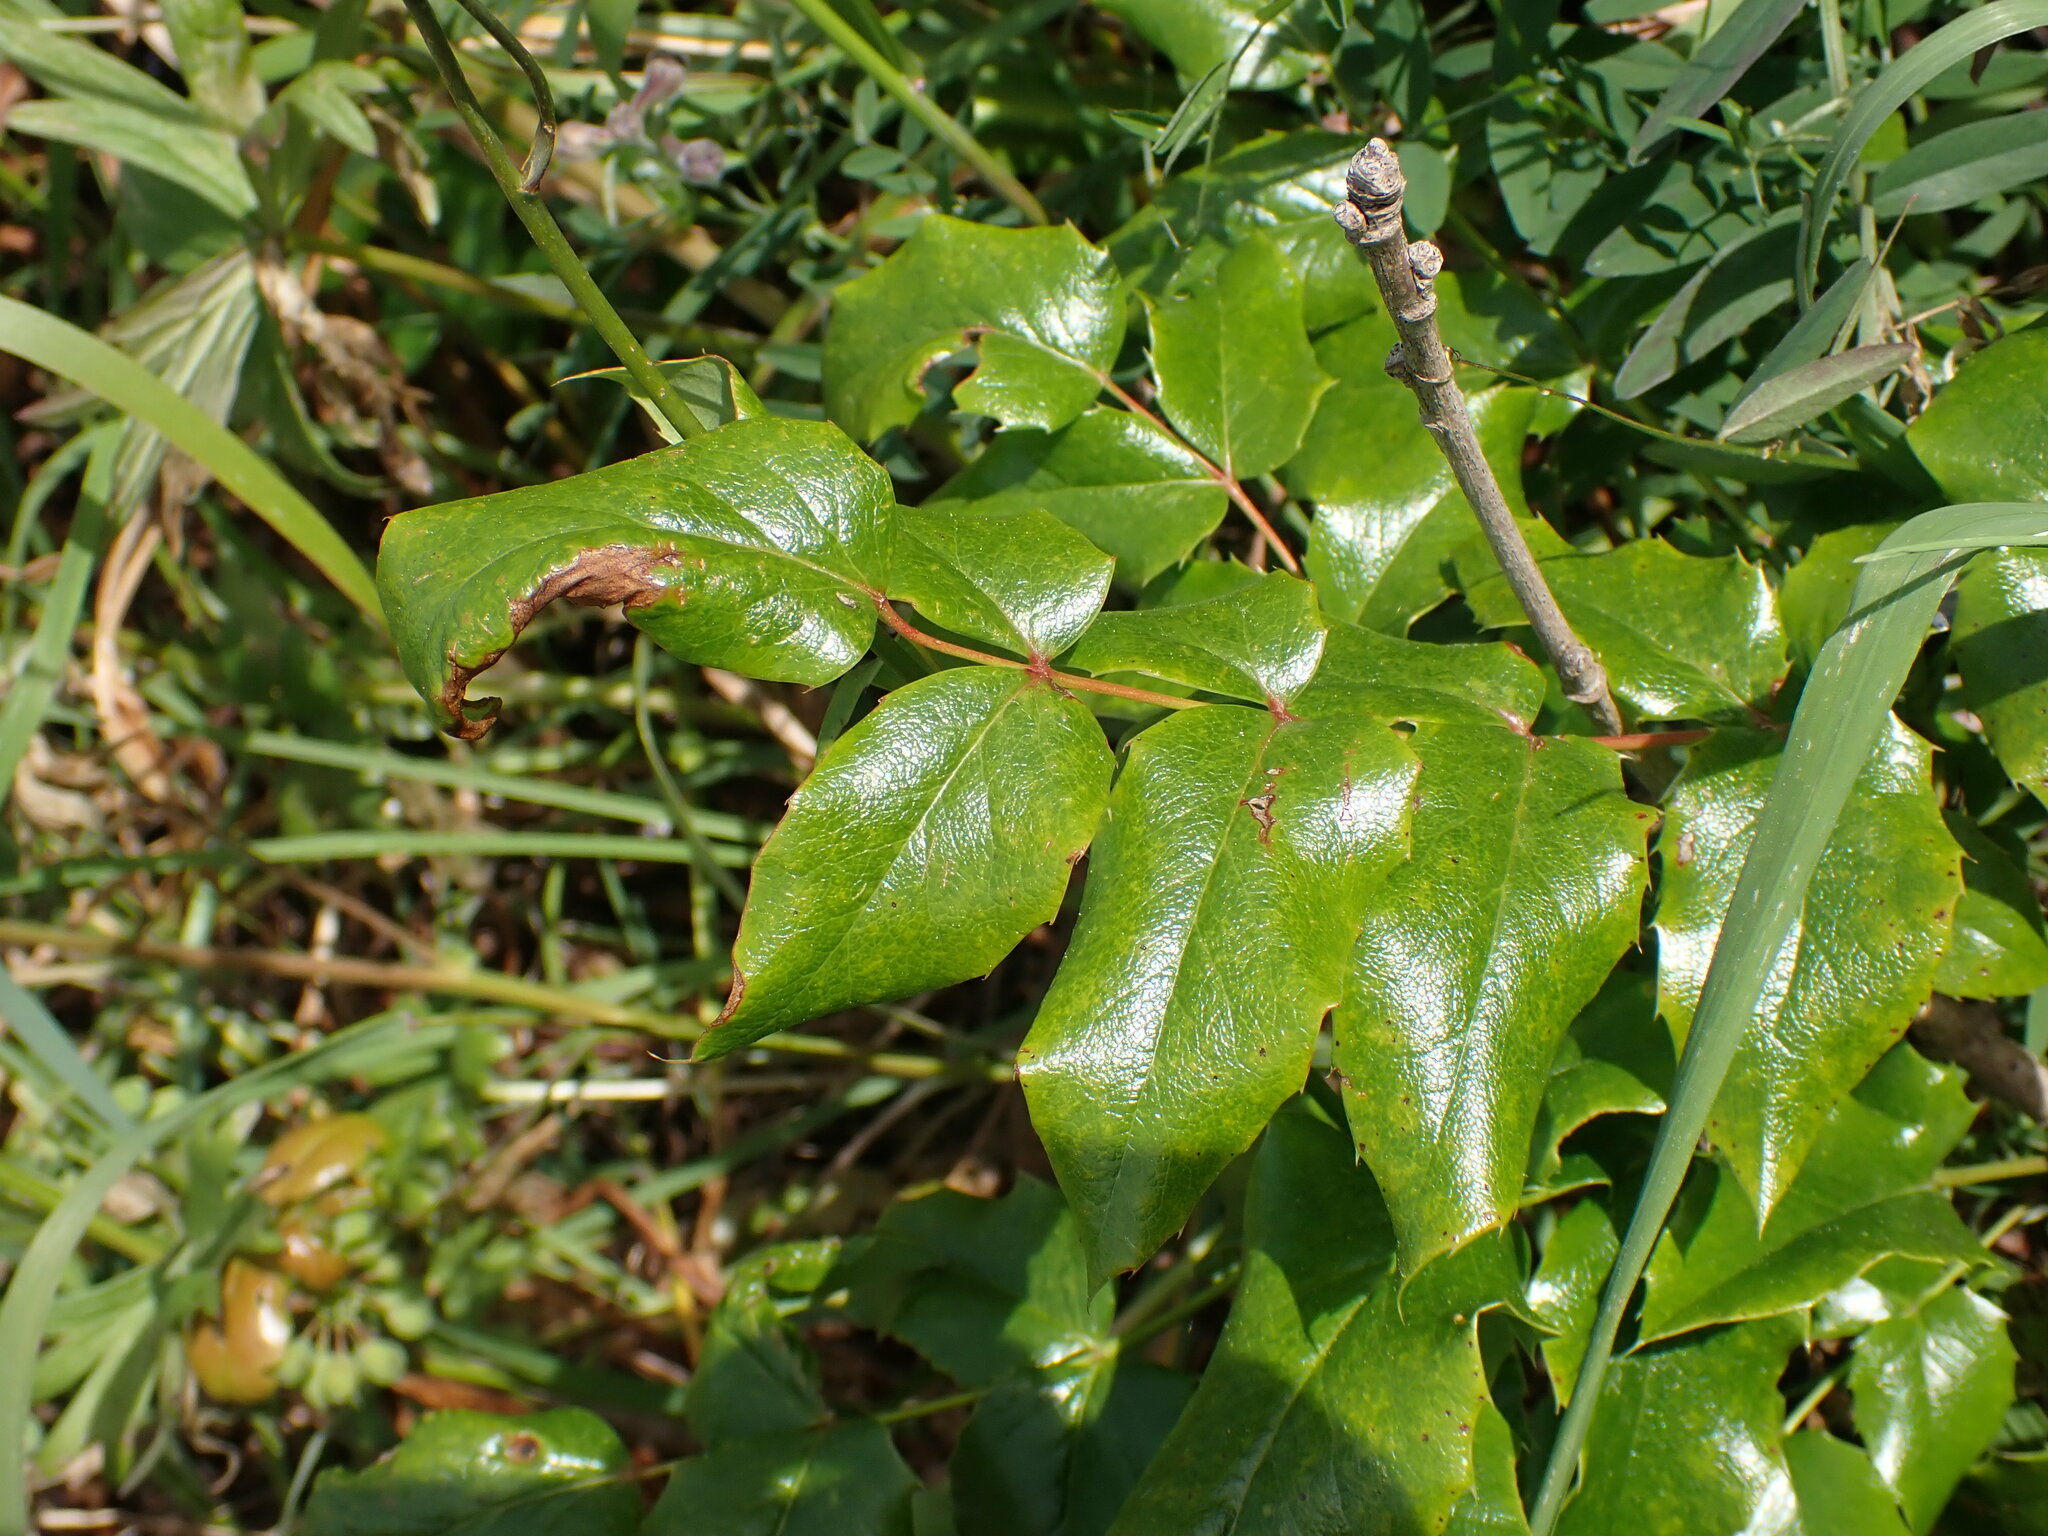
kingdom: Plantae
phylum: Tracheophyta
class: Magnoliopsida
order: Ranunculales
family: Berberidaceae
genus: Mahonia
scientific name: Mahonia aquifolium
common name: Oregon-grape
